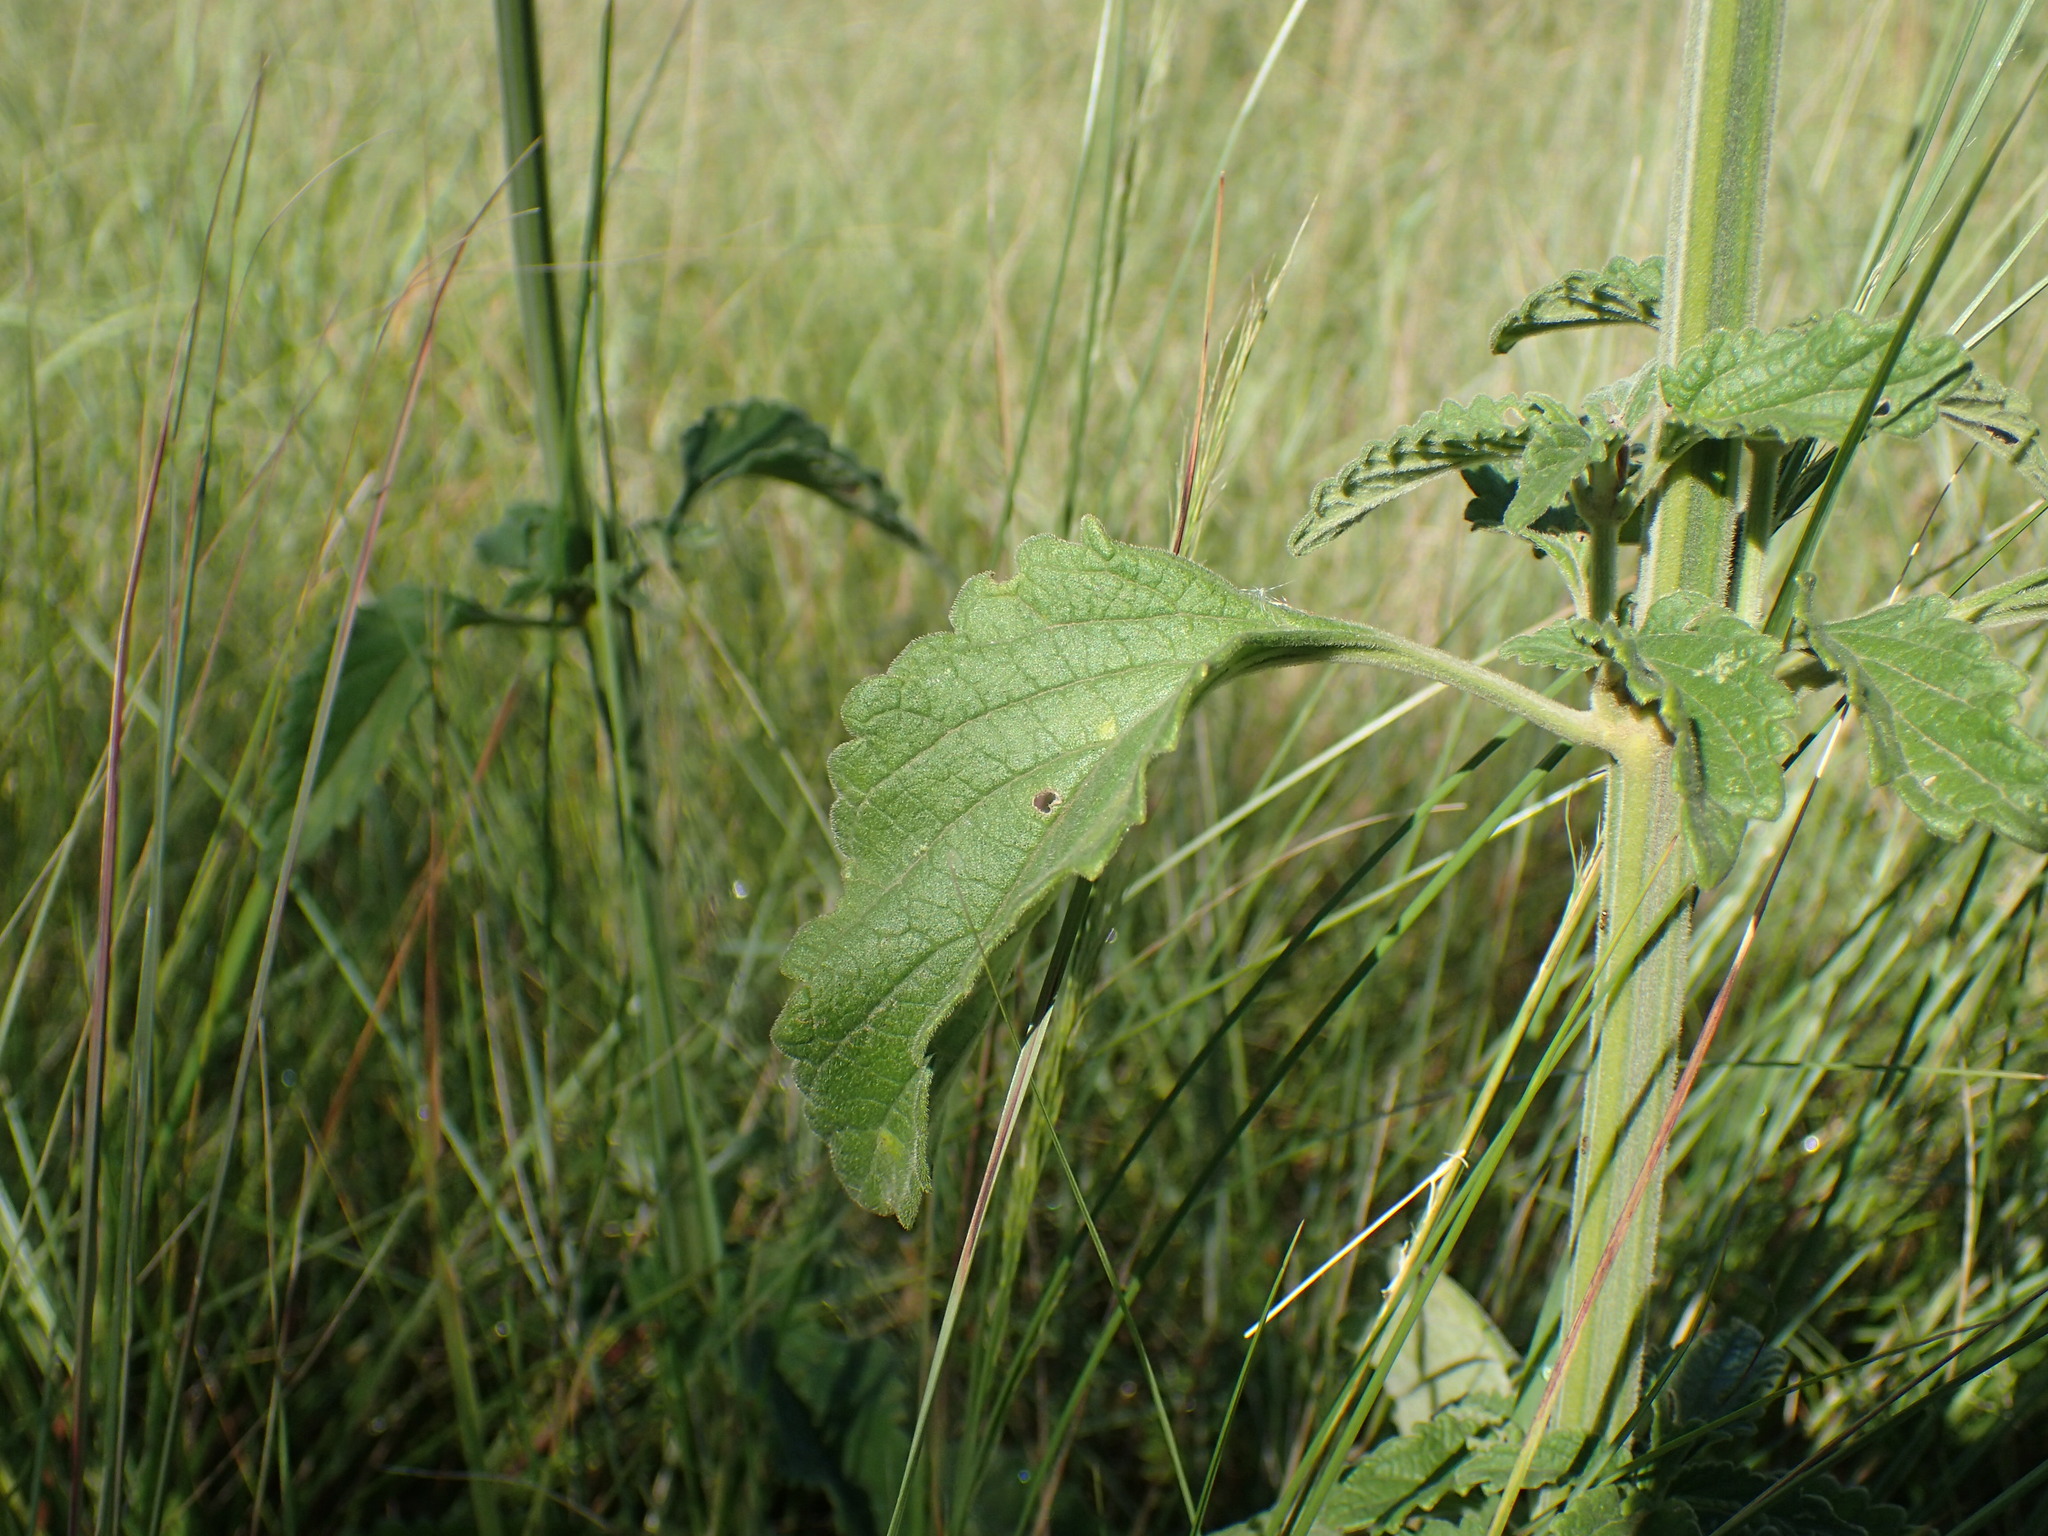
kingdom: Plantae
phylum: Tracheophyta
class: Magnoliopsida
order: Lamiales
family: Lamiaceae
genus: Leonotis
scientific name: Leonotis ocymifolia
